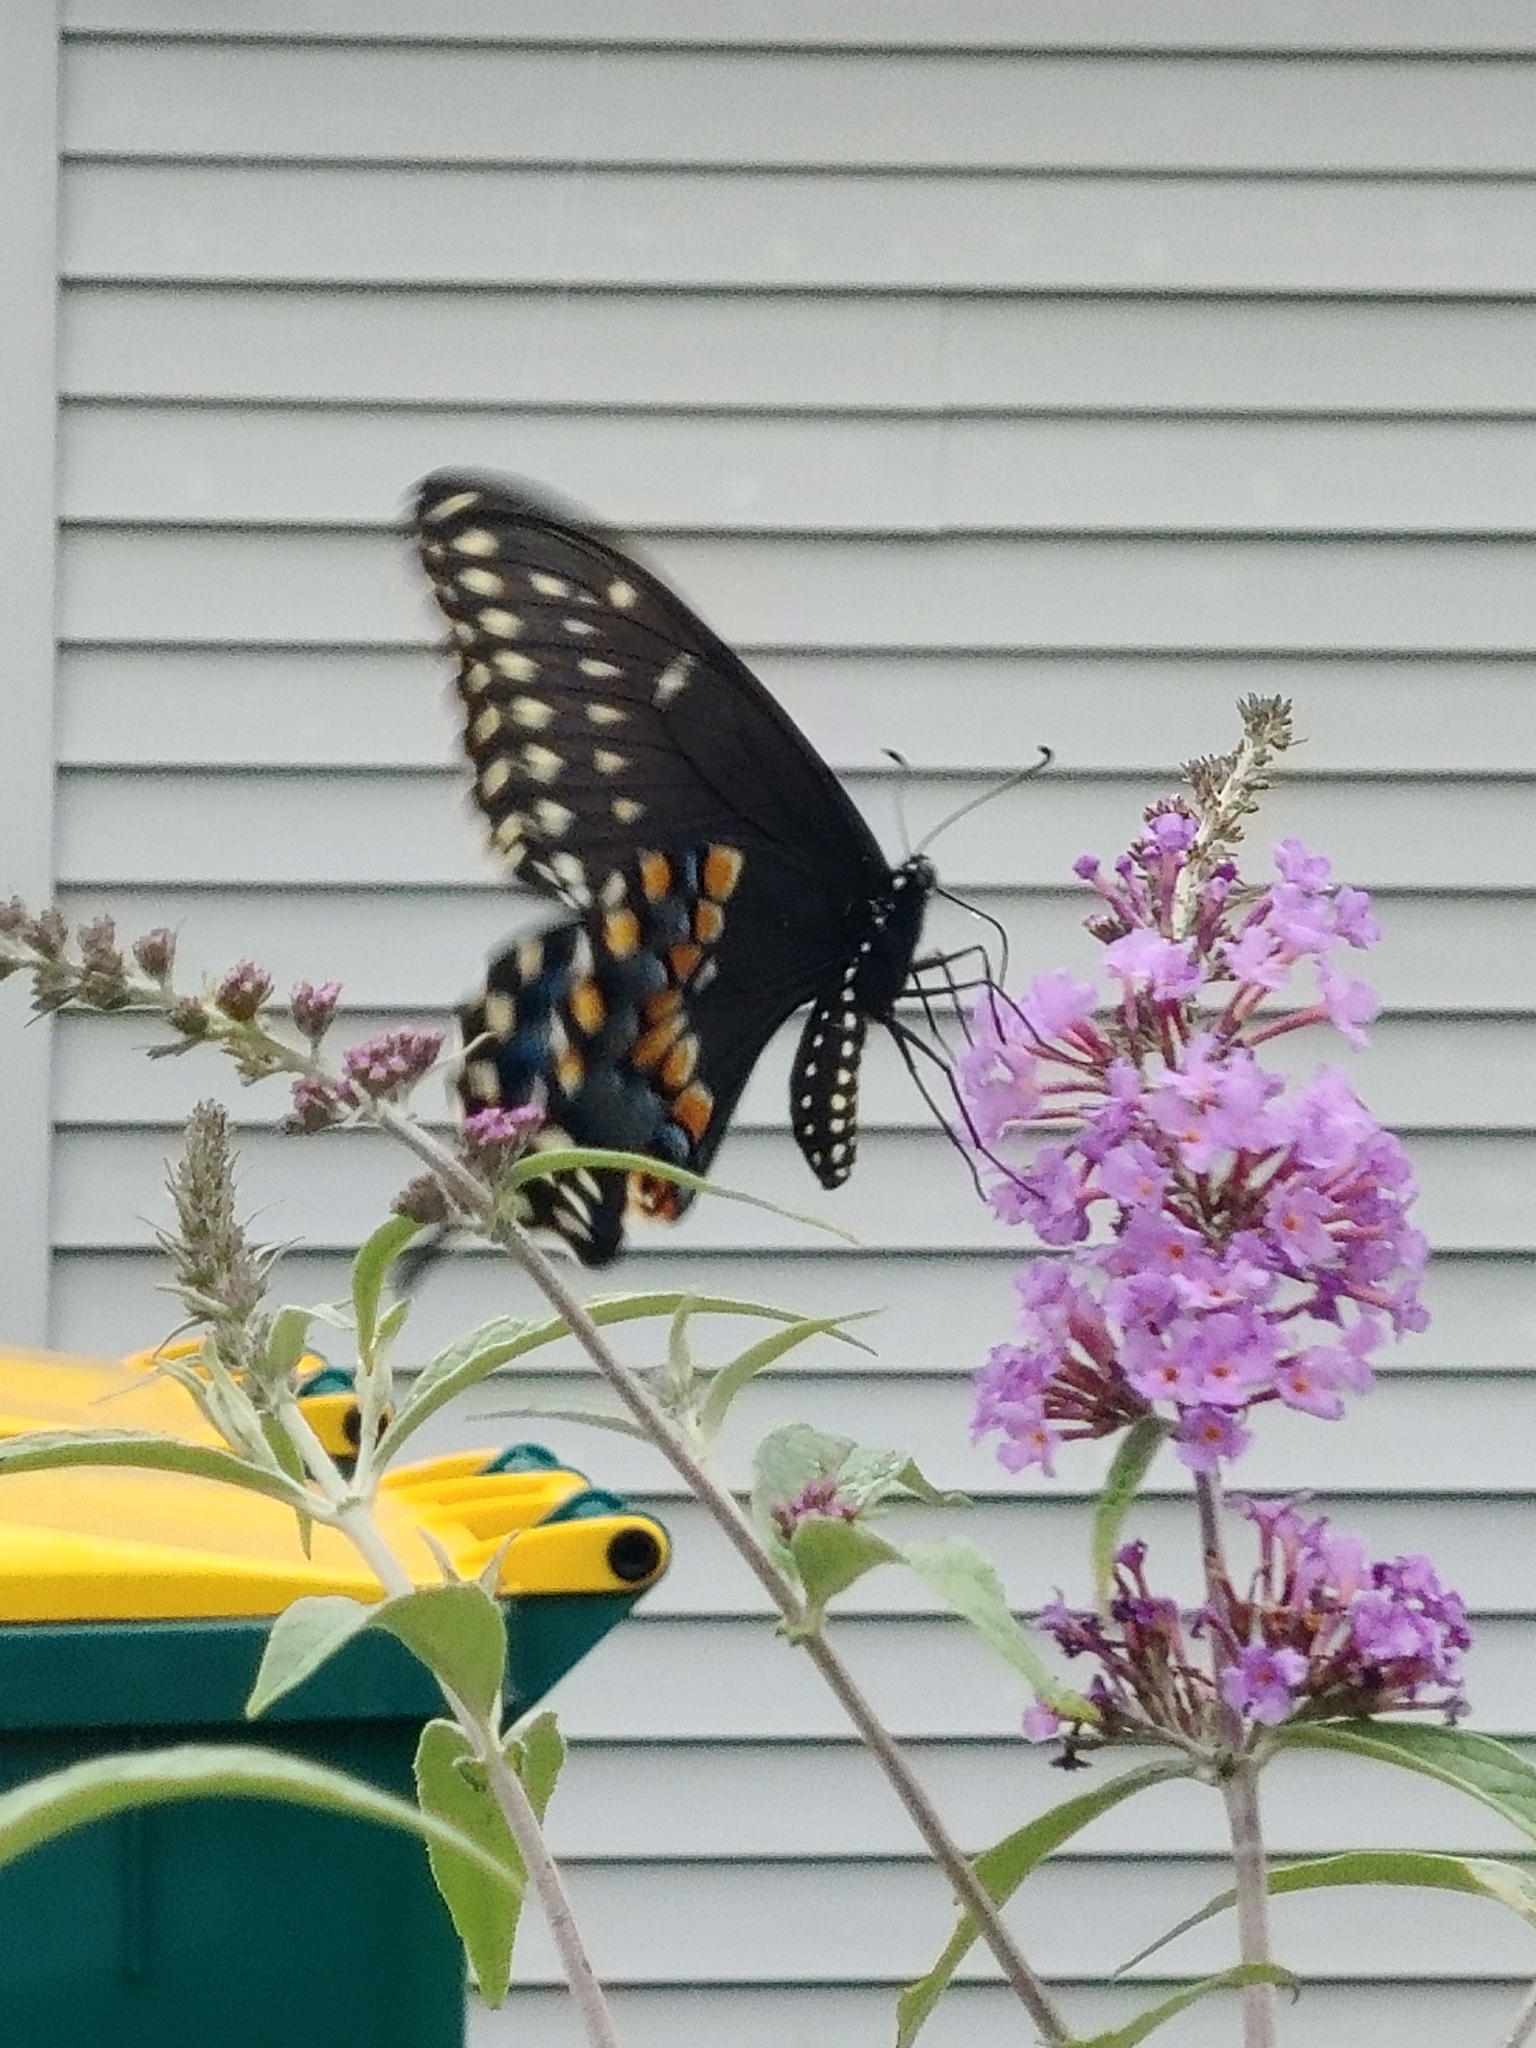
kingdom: Animalia
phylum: Arthropoda
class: Insecta
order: Lepidoptera
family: Papilionidae
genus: Papilio
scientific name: Papilio polyxenes
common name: Black swallowtail
